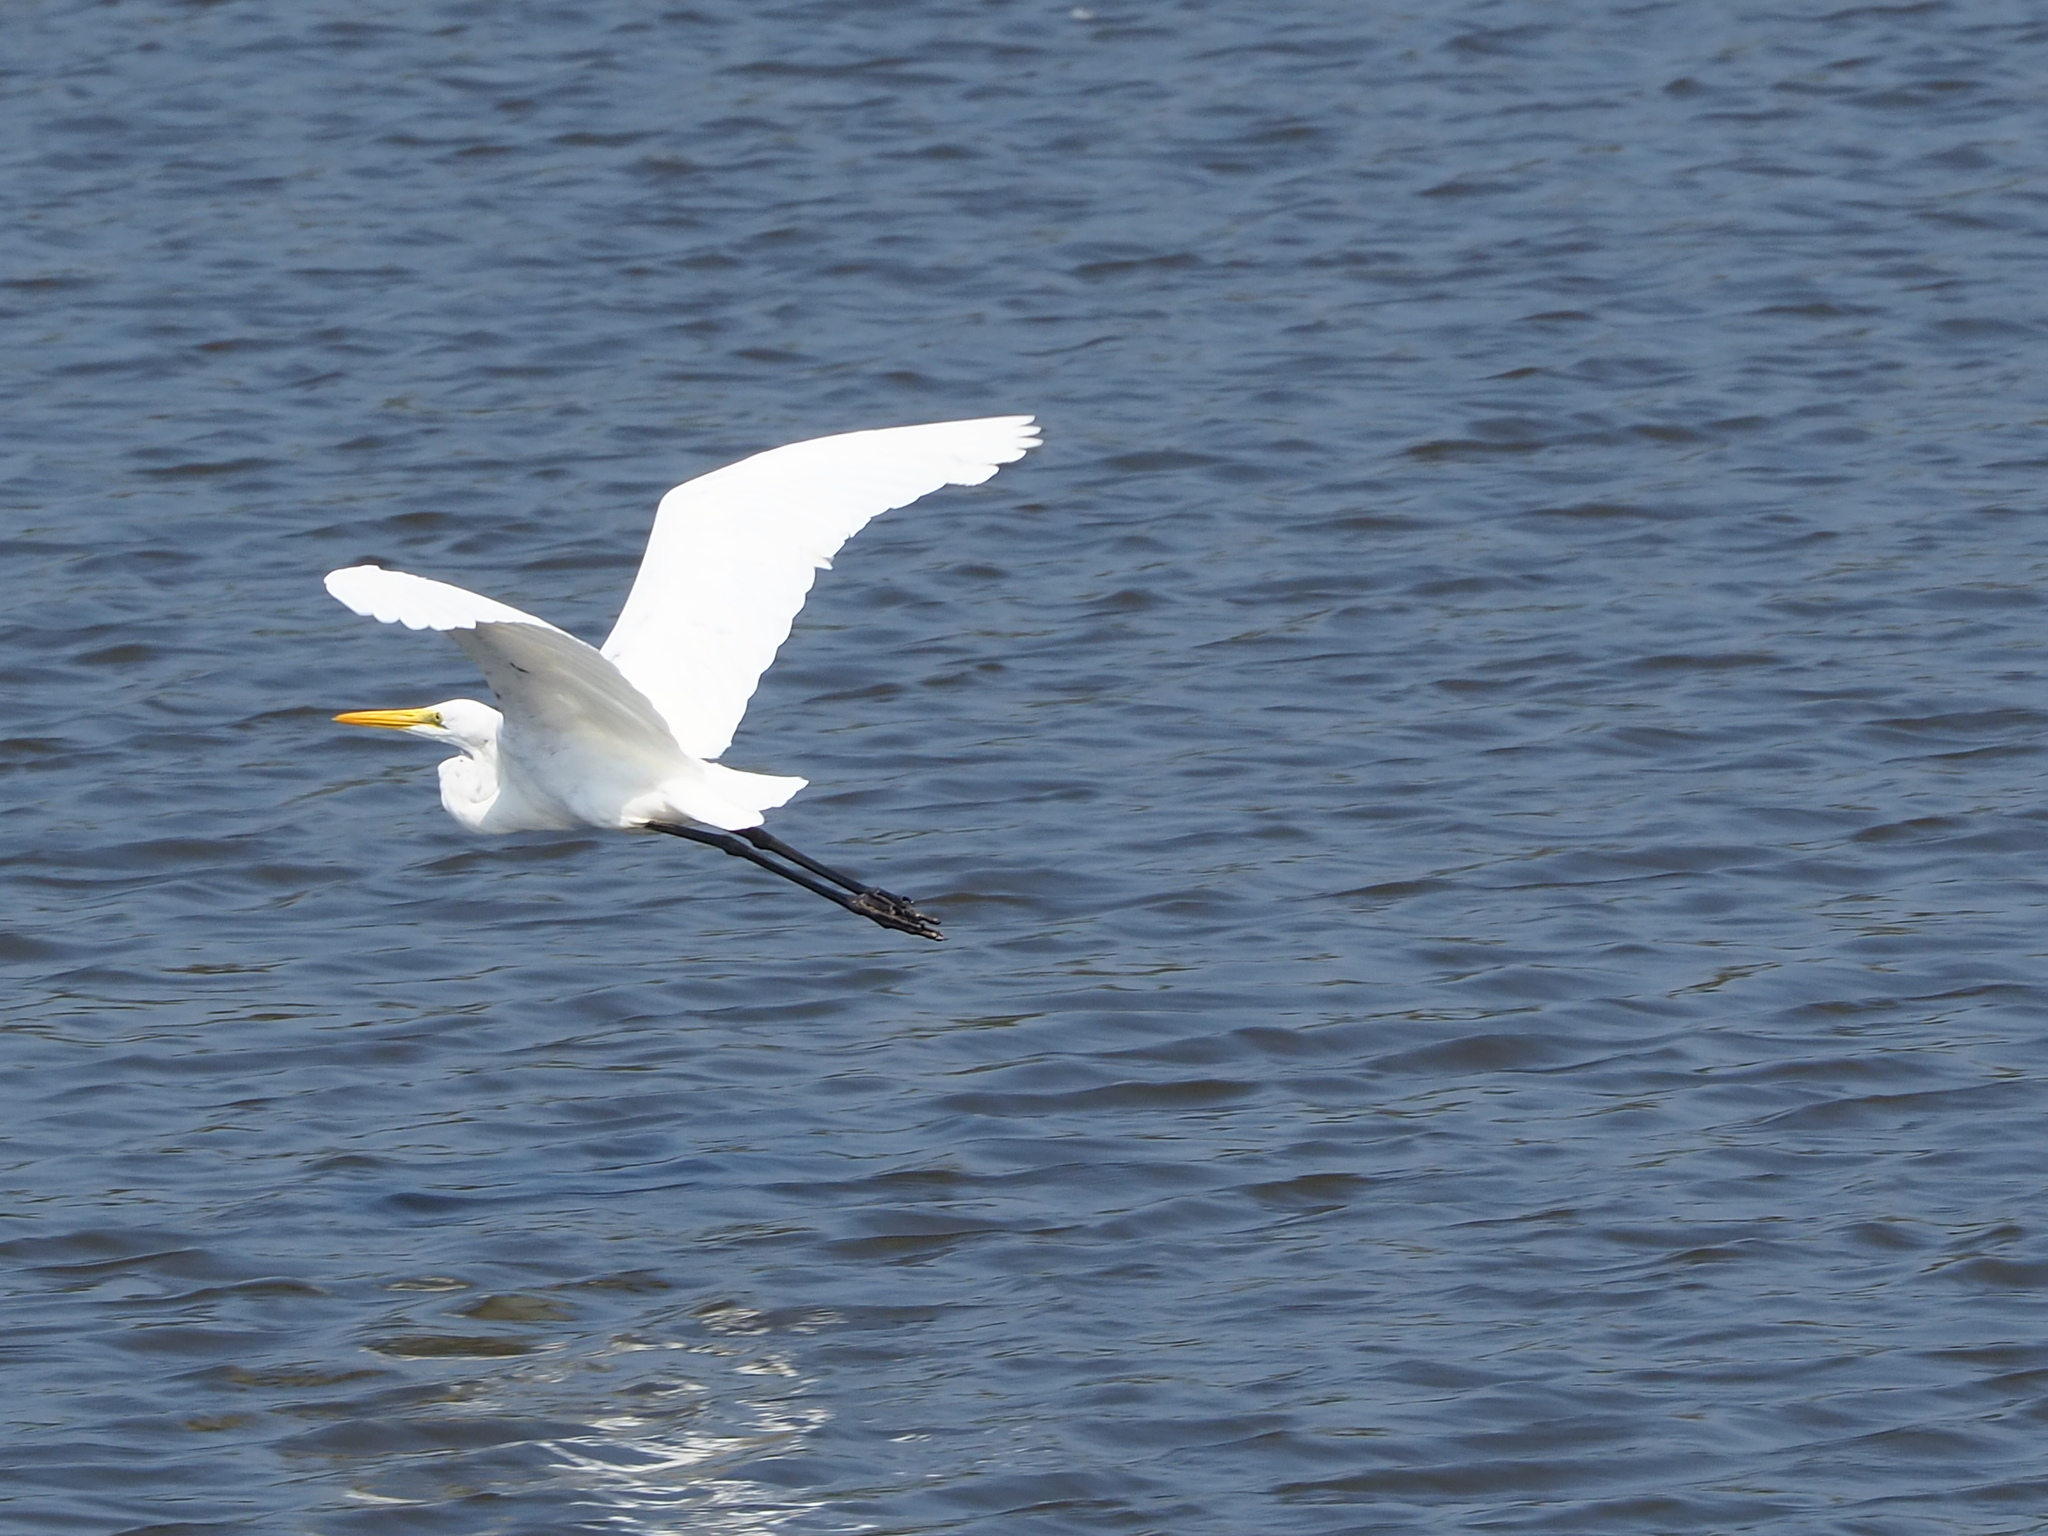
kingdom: Animalia
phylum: Chordata
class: Aves
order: Pelecaniformes
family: Ardeidae
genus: Ardea
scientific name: Ardea alba
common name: Great egret
